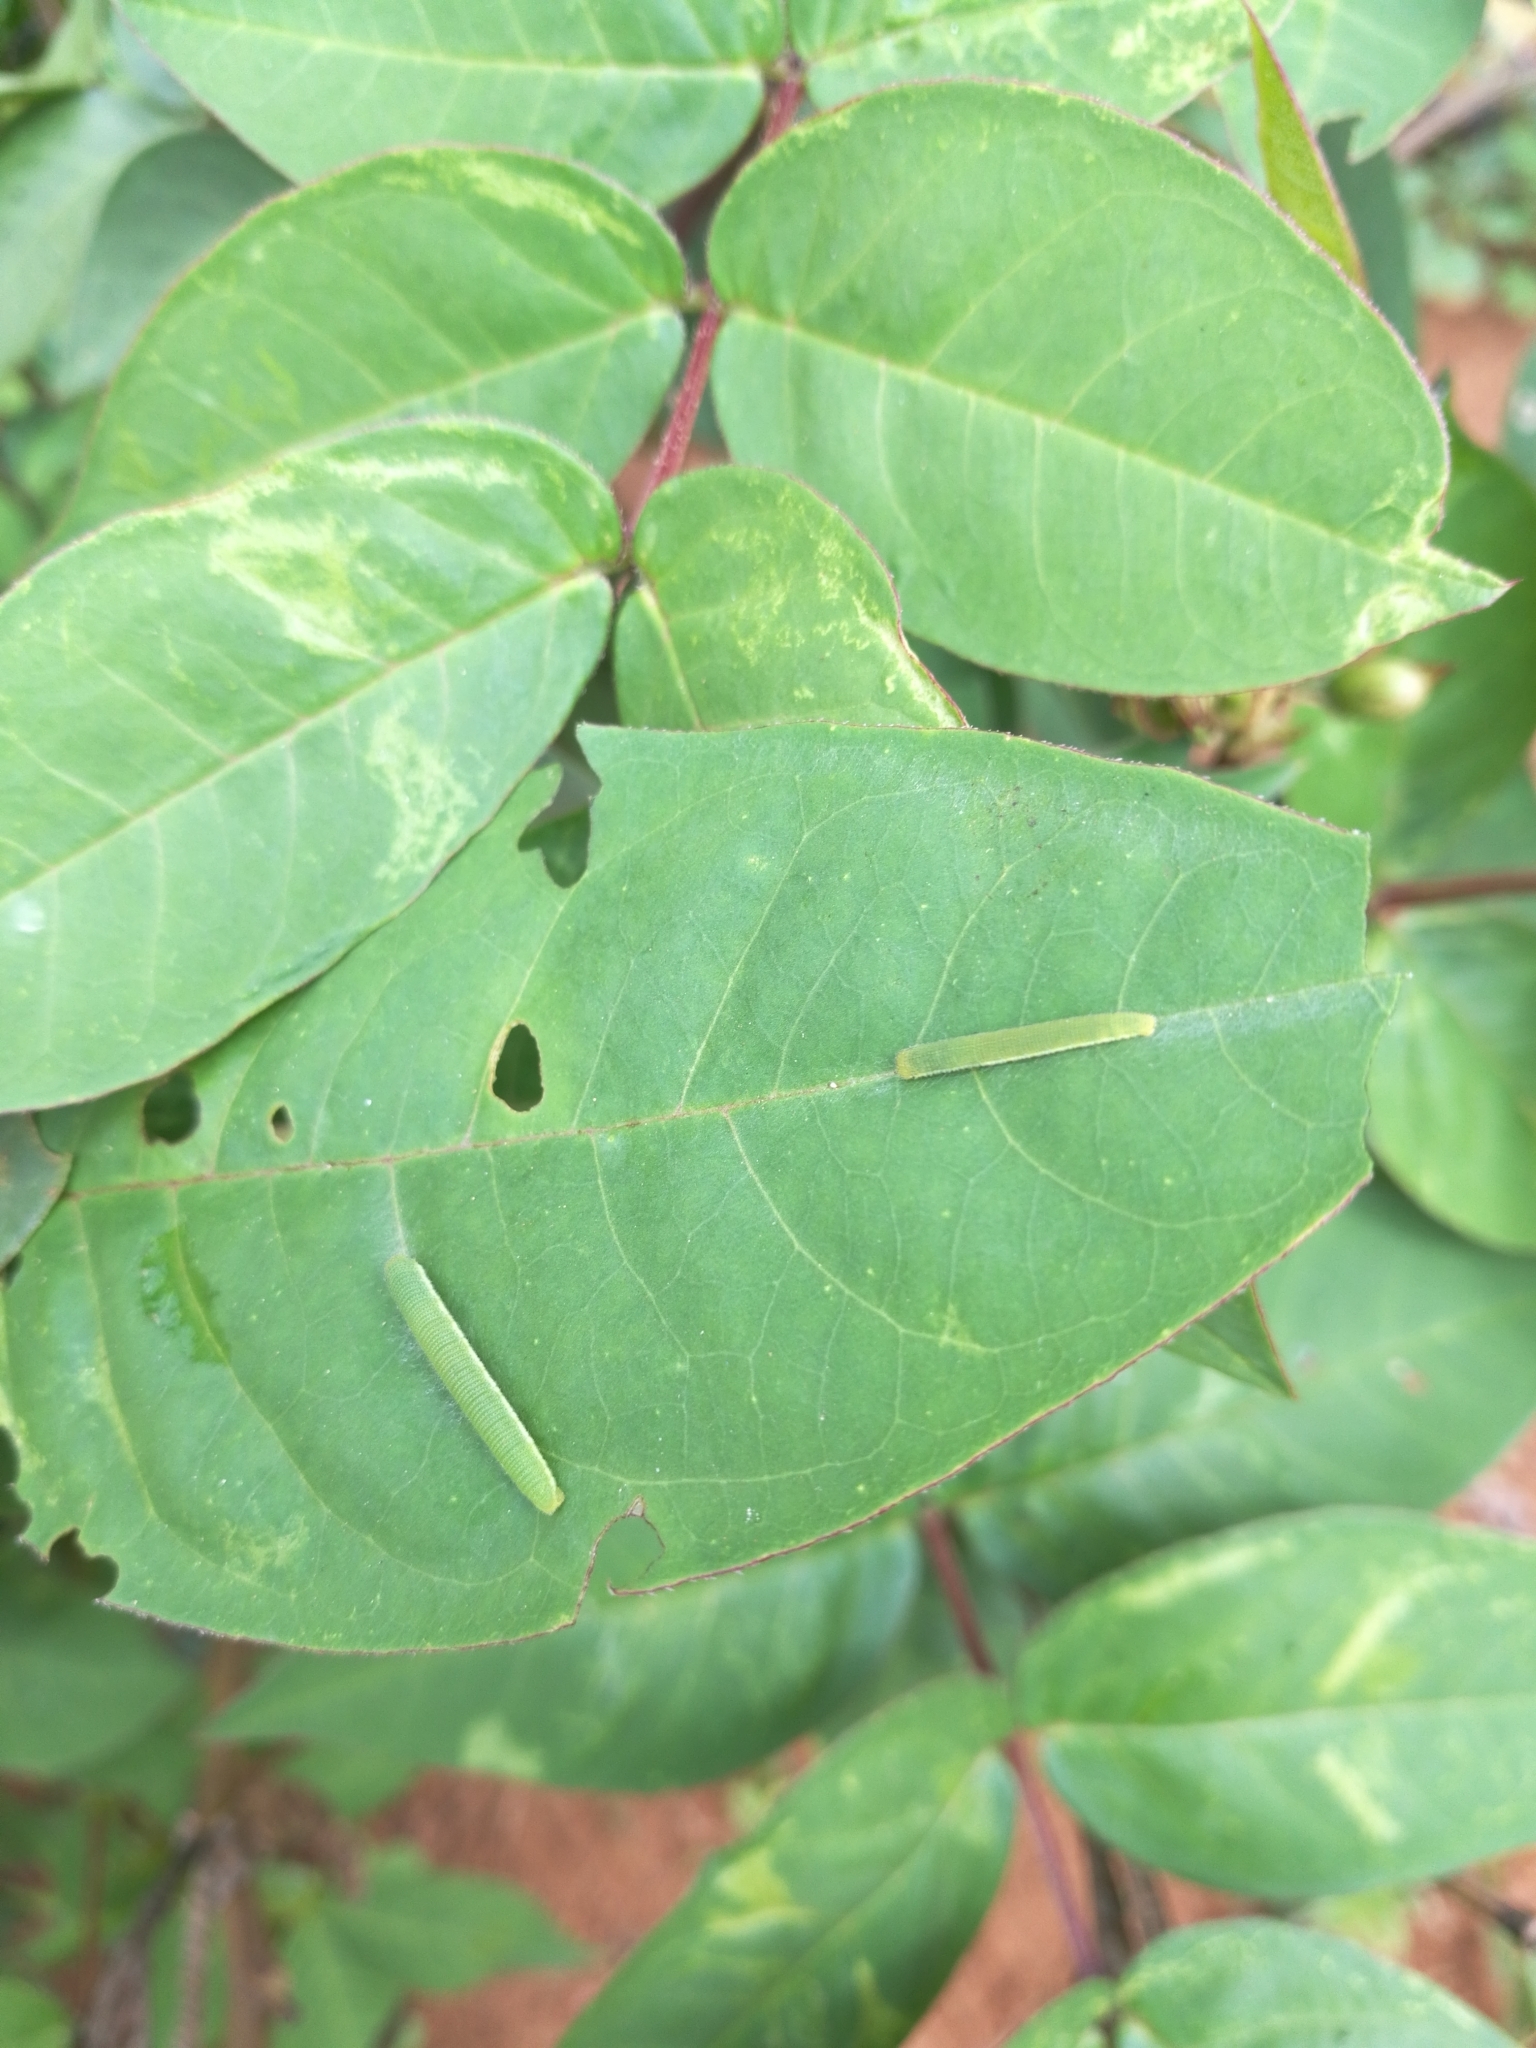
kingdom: Animalia
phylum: Arthropoda
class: Insecta
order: Lepidoptera
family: Pieridae
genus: Catopsilia
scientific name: Catopsilia florella
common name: African migrant
